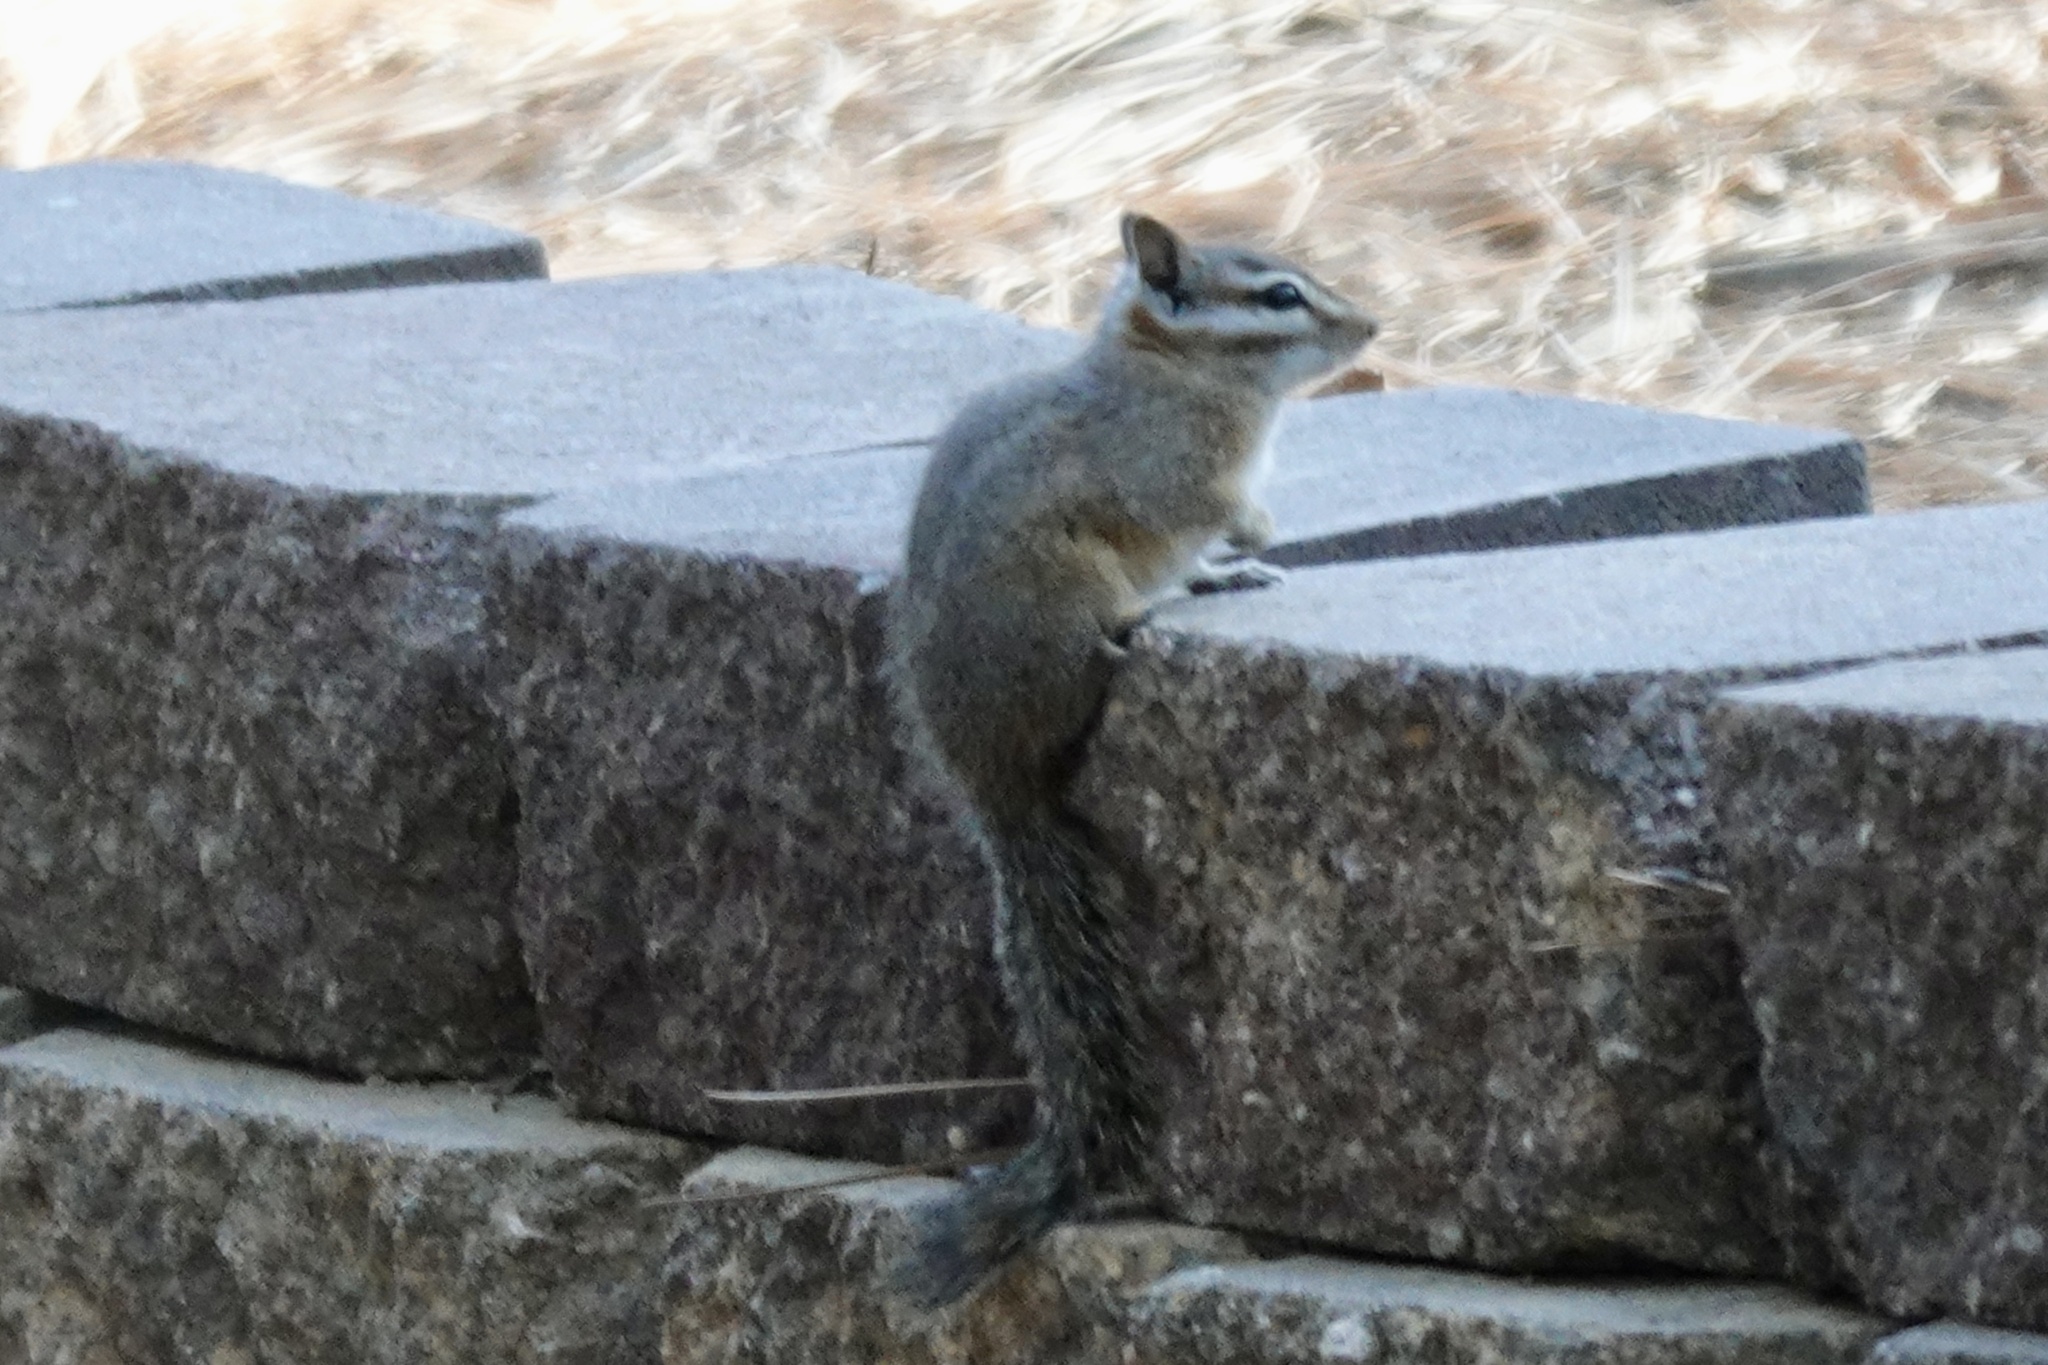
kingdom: Animalia
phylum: Chordata
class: Mammalia
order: Rodentia
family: Sciuridae
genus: Tamias
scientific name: Tamias dorsalis
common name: Cliff chipmunk
